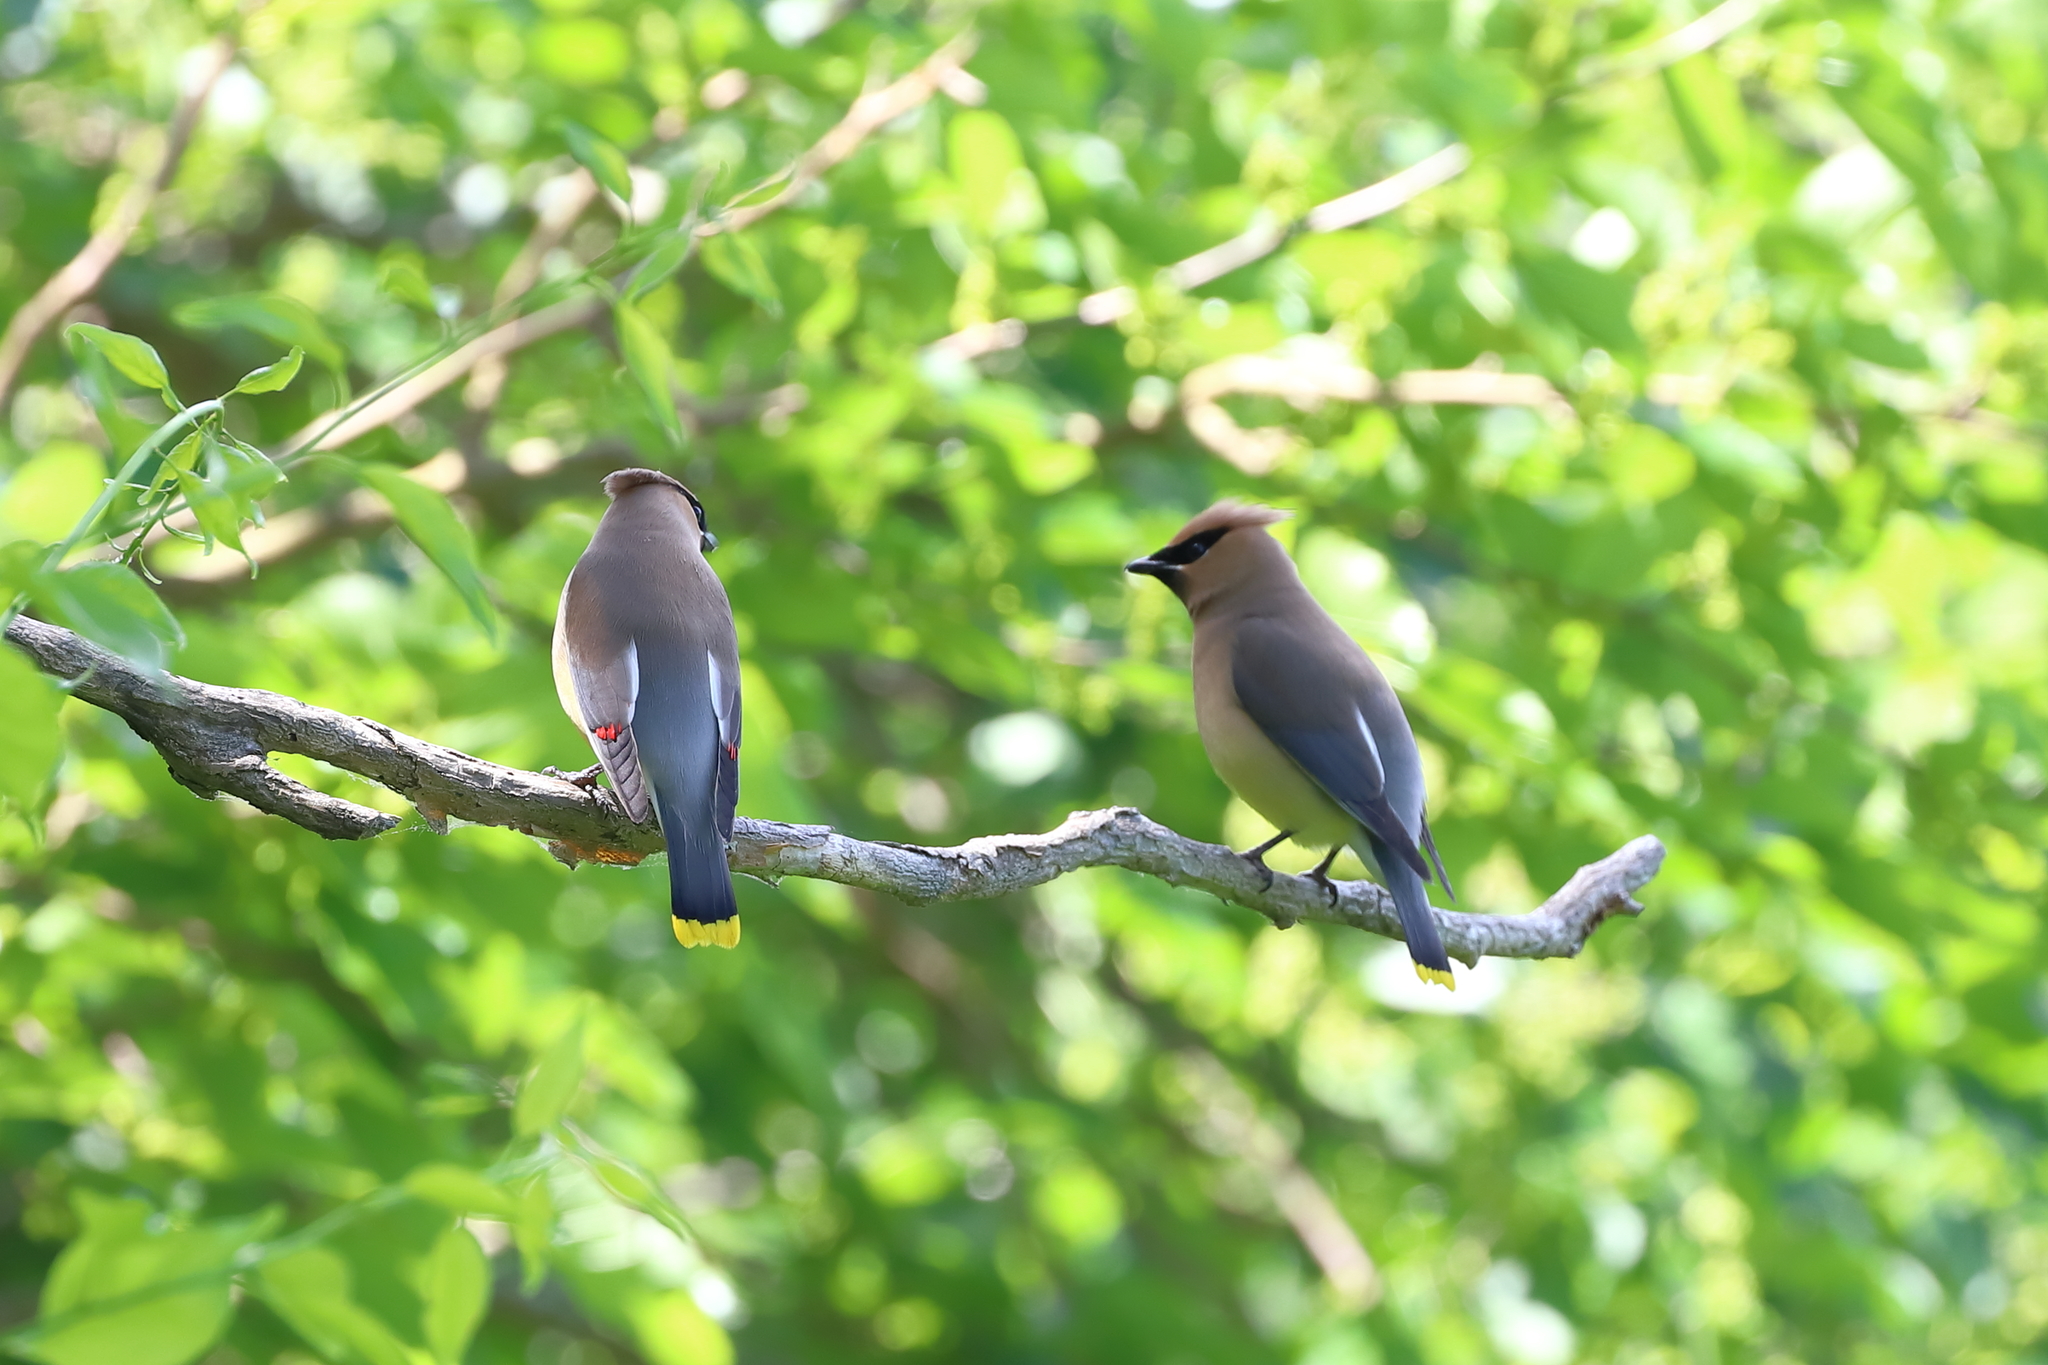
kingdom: Animalia
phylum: Chordata
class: Aves
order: Passeriformes
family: Bombycillidae
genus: Bombycilla
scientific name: Bombycilla cedrorum
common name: Cedar waxwing
